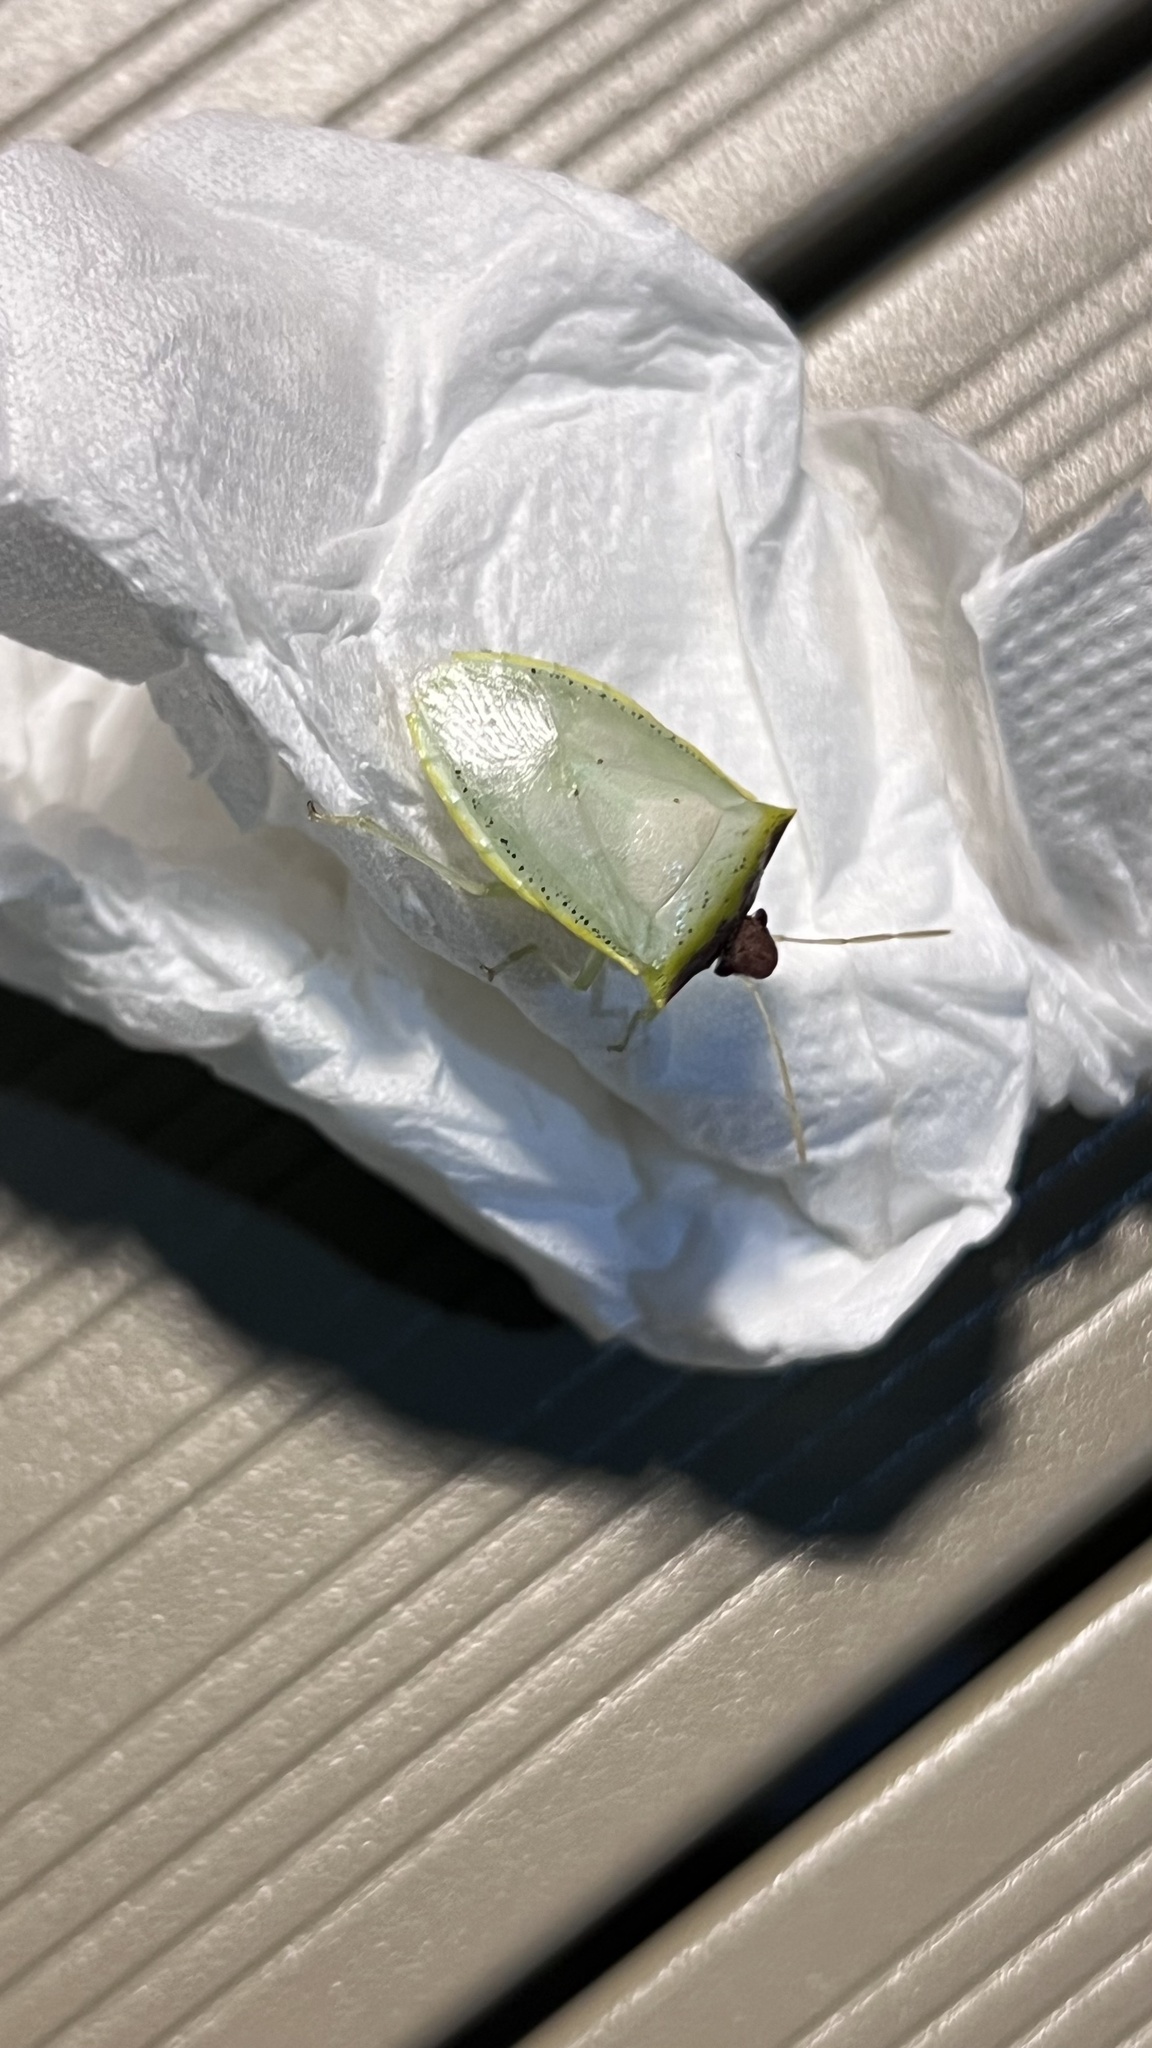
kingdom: Animalia
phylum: Arthropoda
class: Insecta
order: Hemiptera
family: Pentatomidae
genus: Priassus
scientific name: Priassus exemptus
